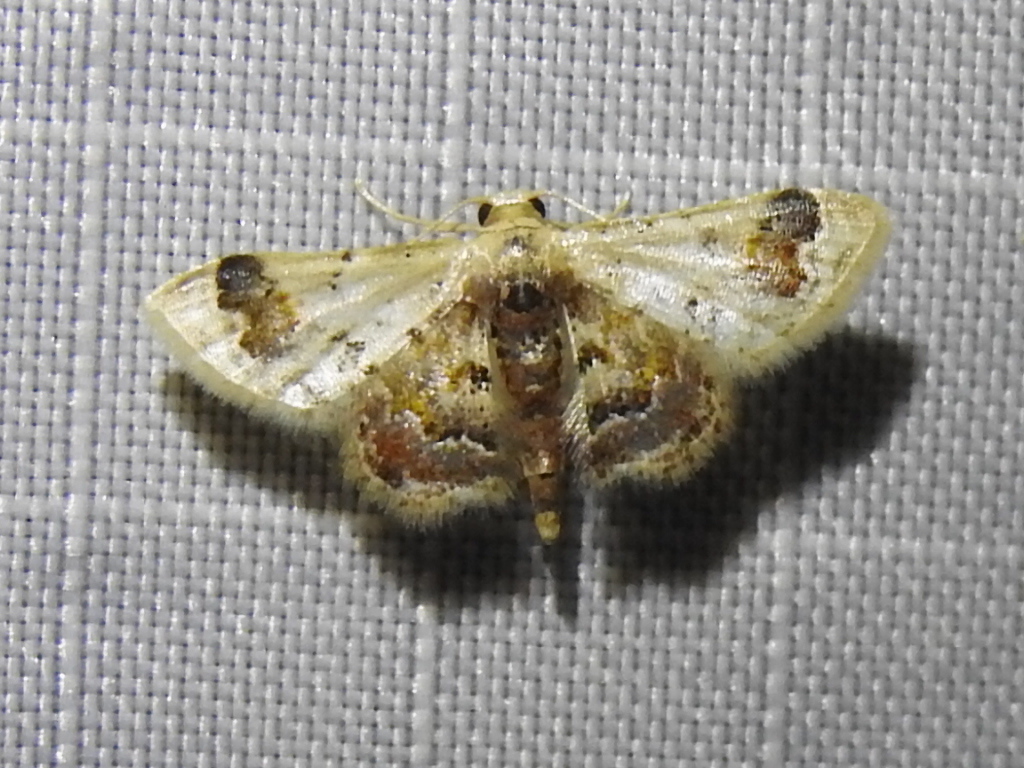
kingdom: Animalia
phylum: Arthropoda
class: Insecta
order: Lepidoptera
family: Geometridae
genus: Idaea
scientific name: Idaea asceta
